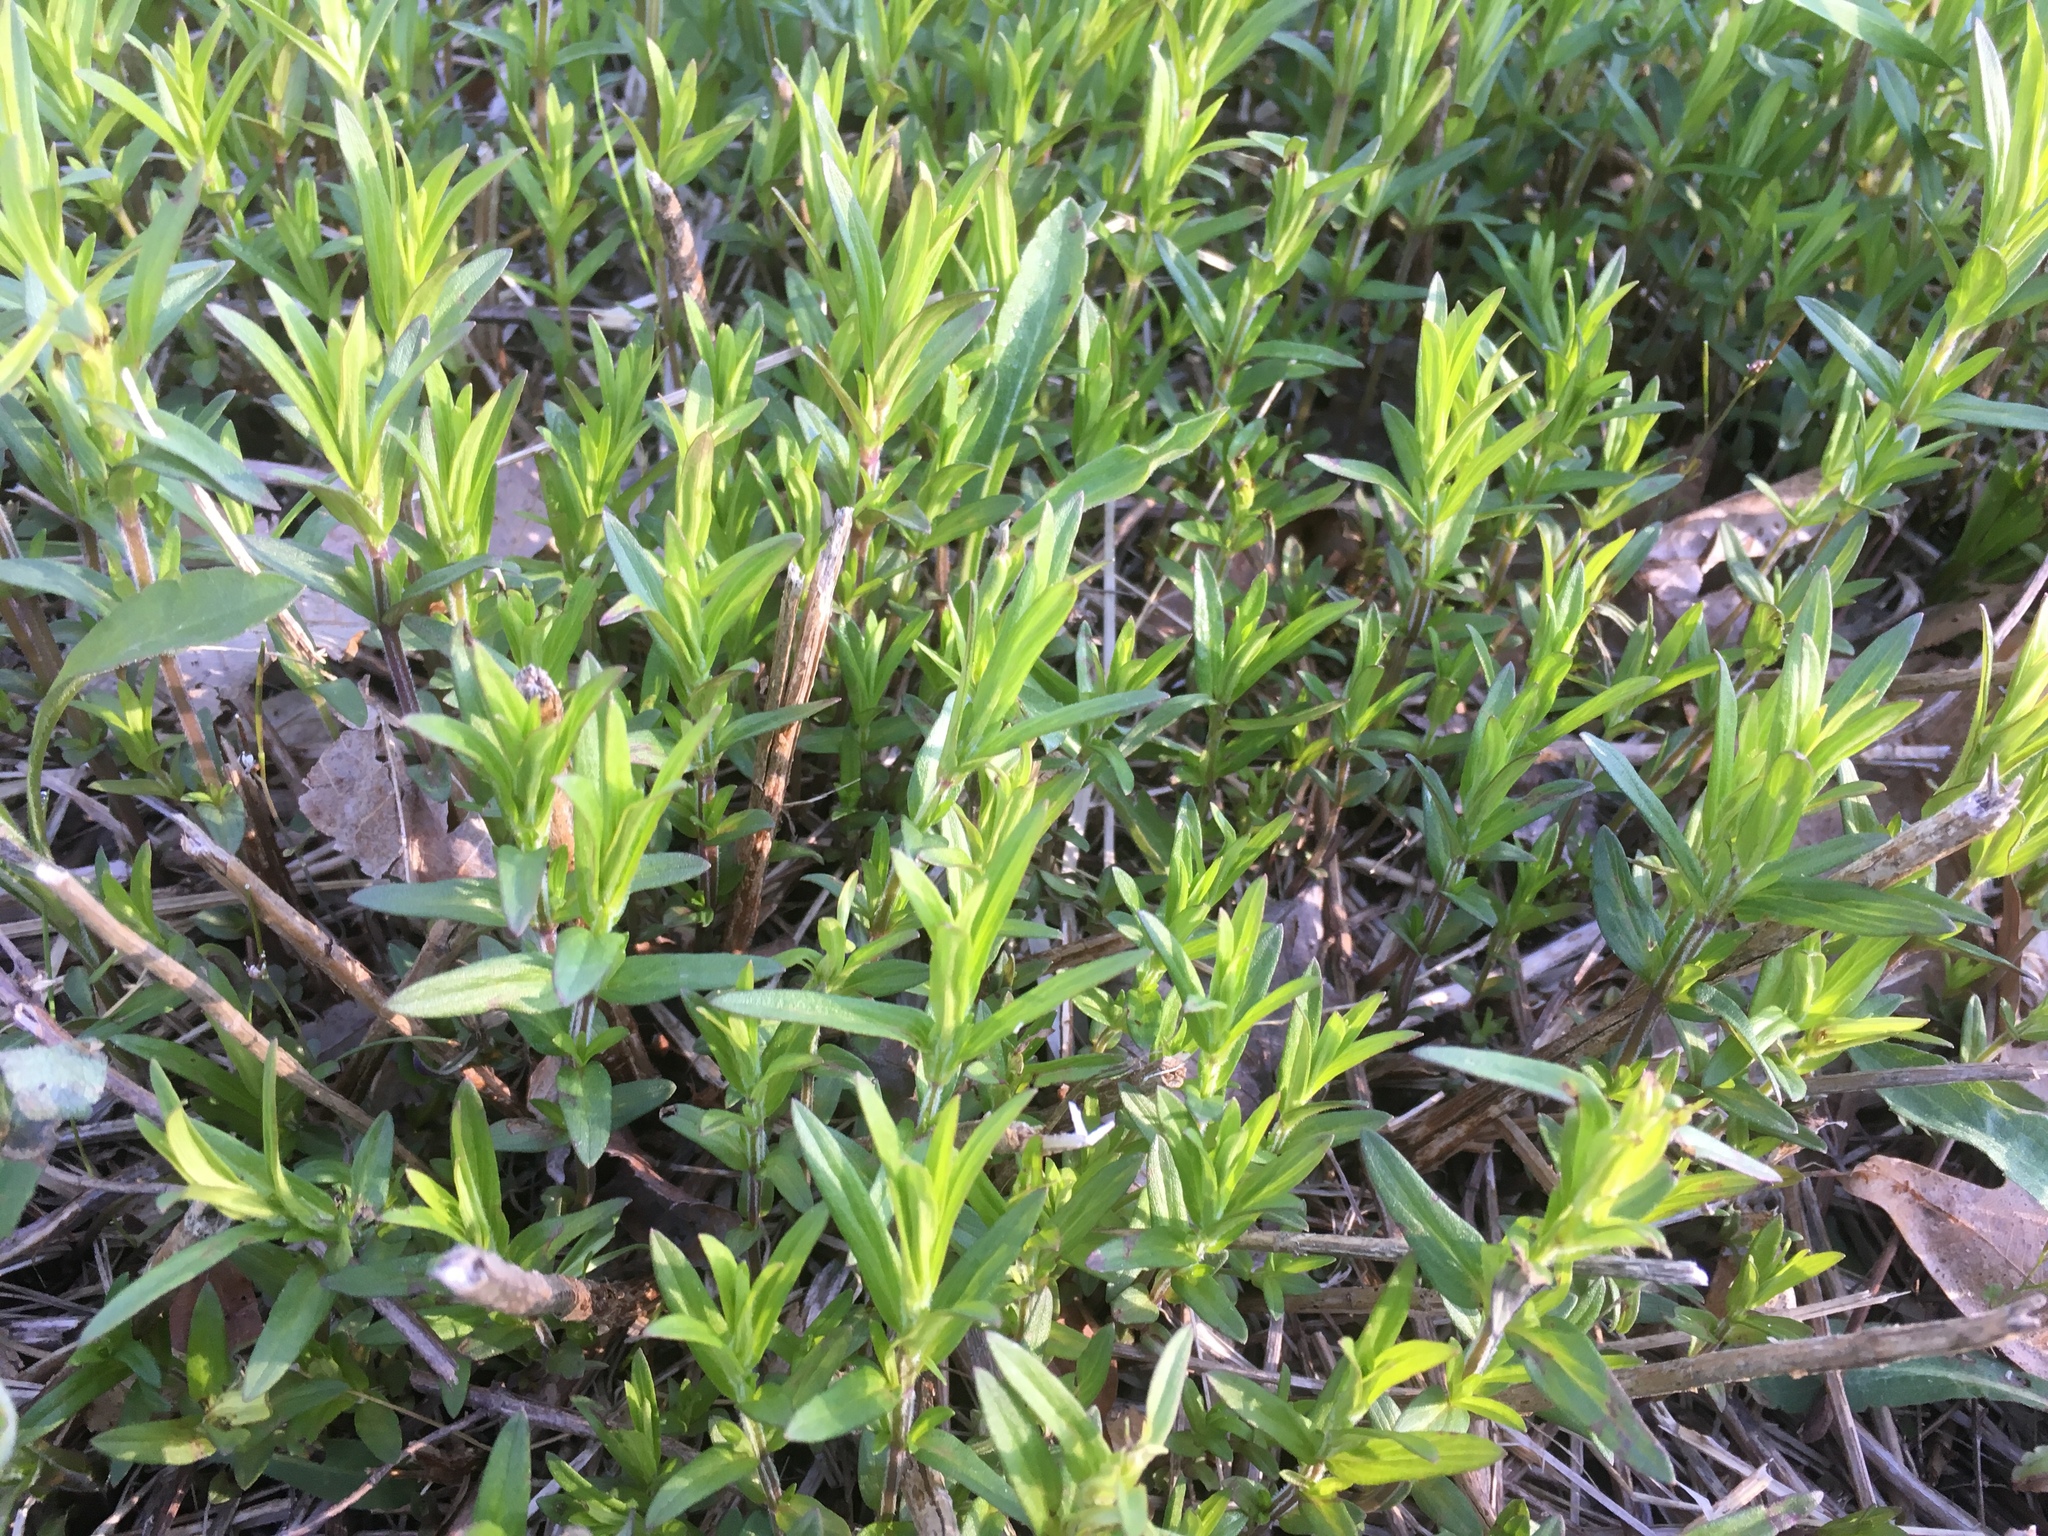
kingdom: Plantae
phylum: Tracheophyta
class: Magnoliopsida
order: Lamiales
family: Lamiaceae
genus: Pycnanthemum
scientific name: Pycnanthemum virginianum
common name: Virginia mountain-mint
